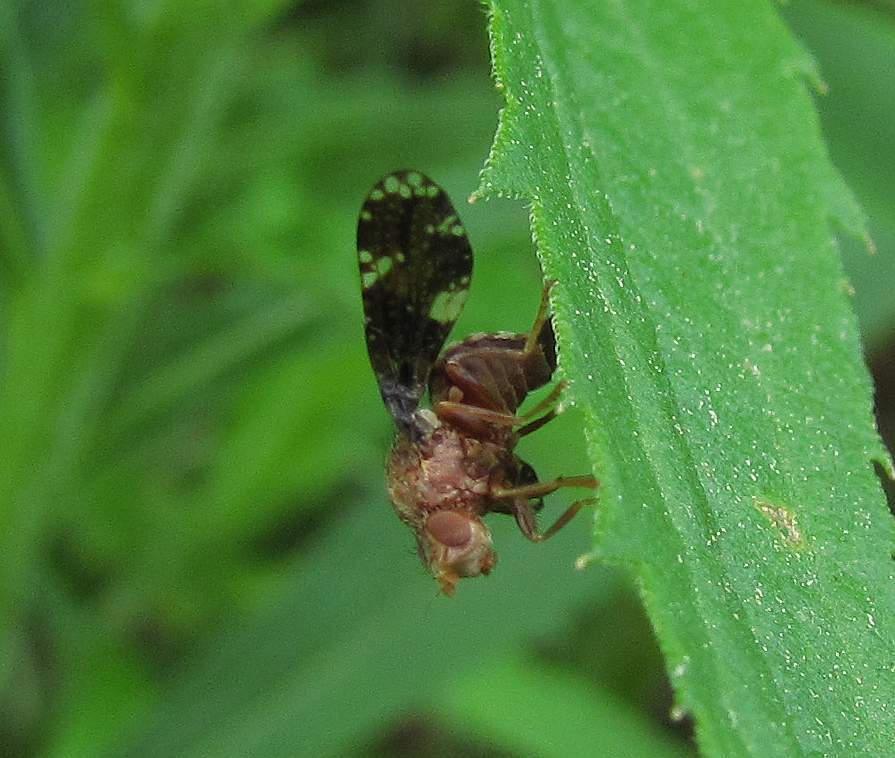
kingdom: Animalia
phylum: Arthropoda
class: Insecta
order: Diptera
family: Tephritidae
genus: Eurosta
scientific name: Eurosta solidaginis
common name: Goldenrod gall fly
